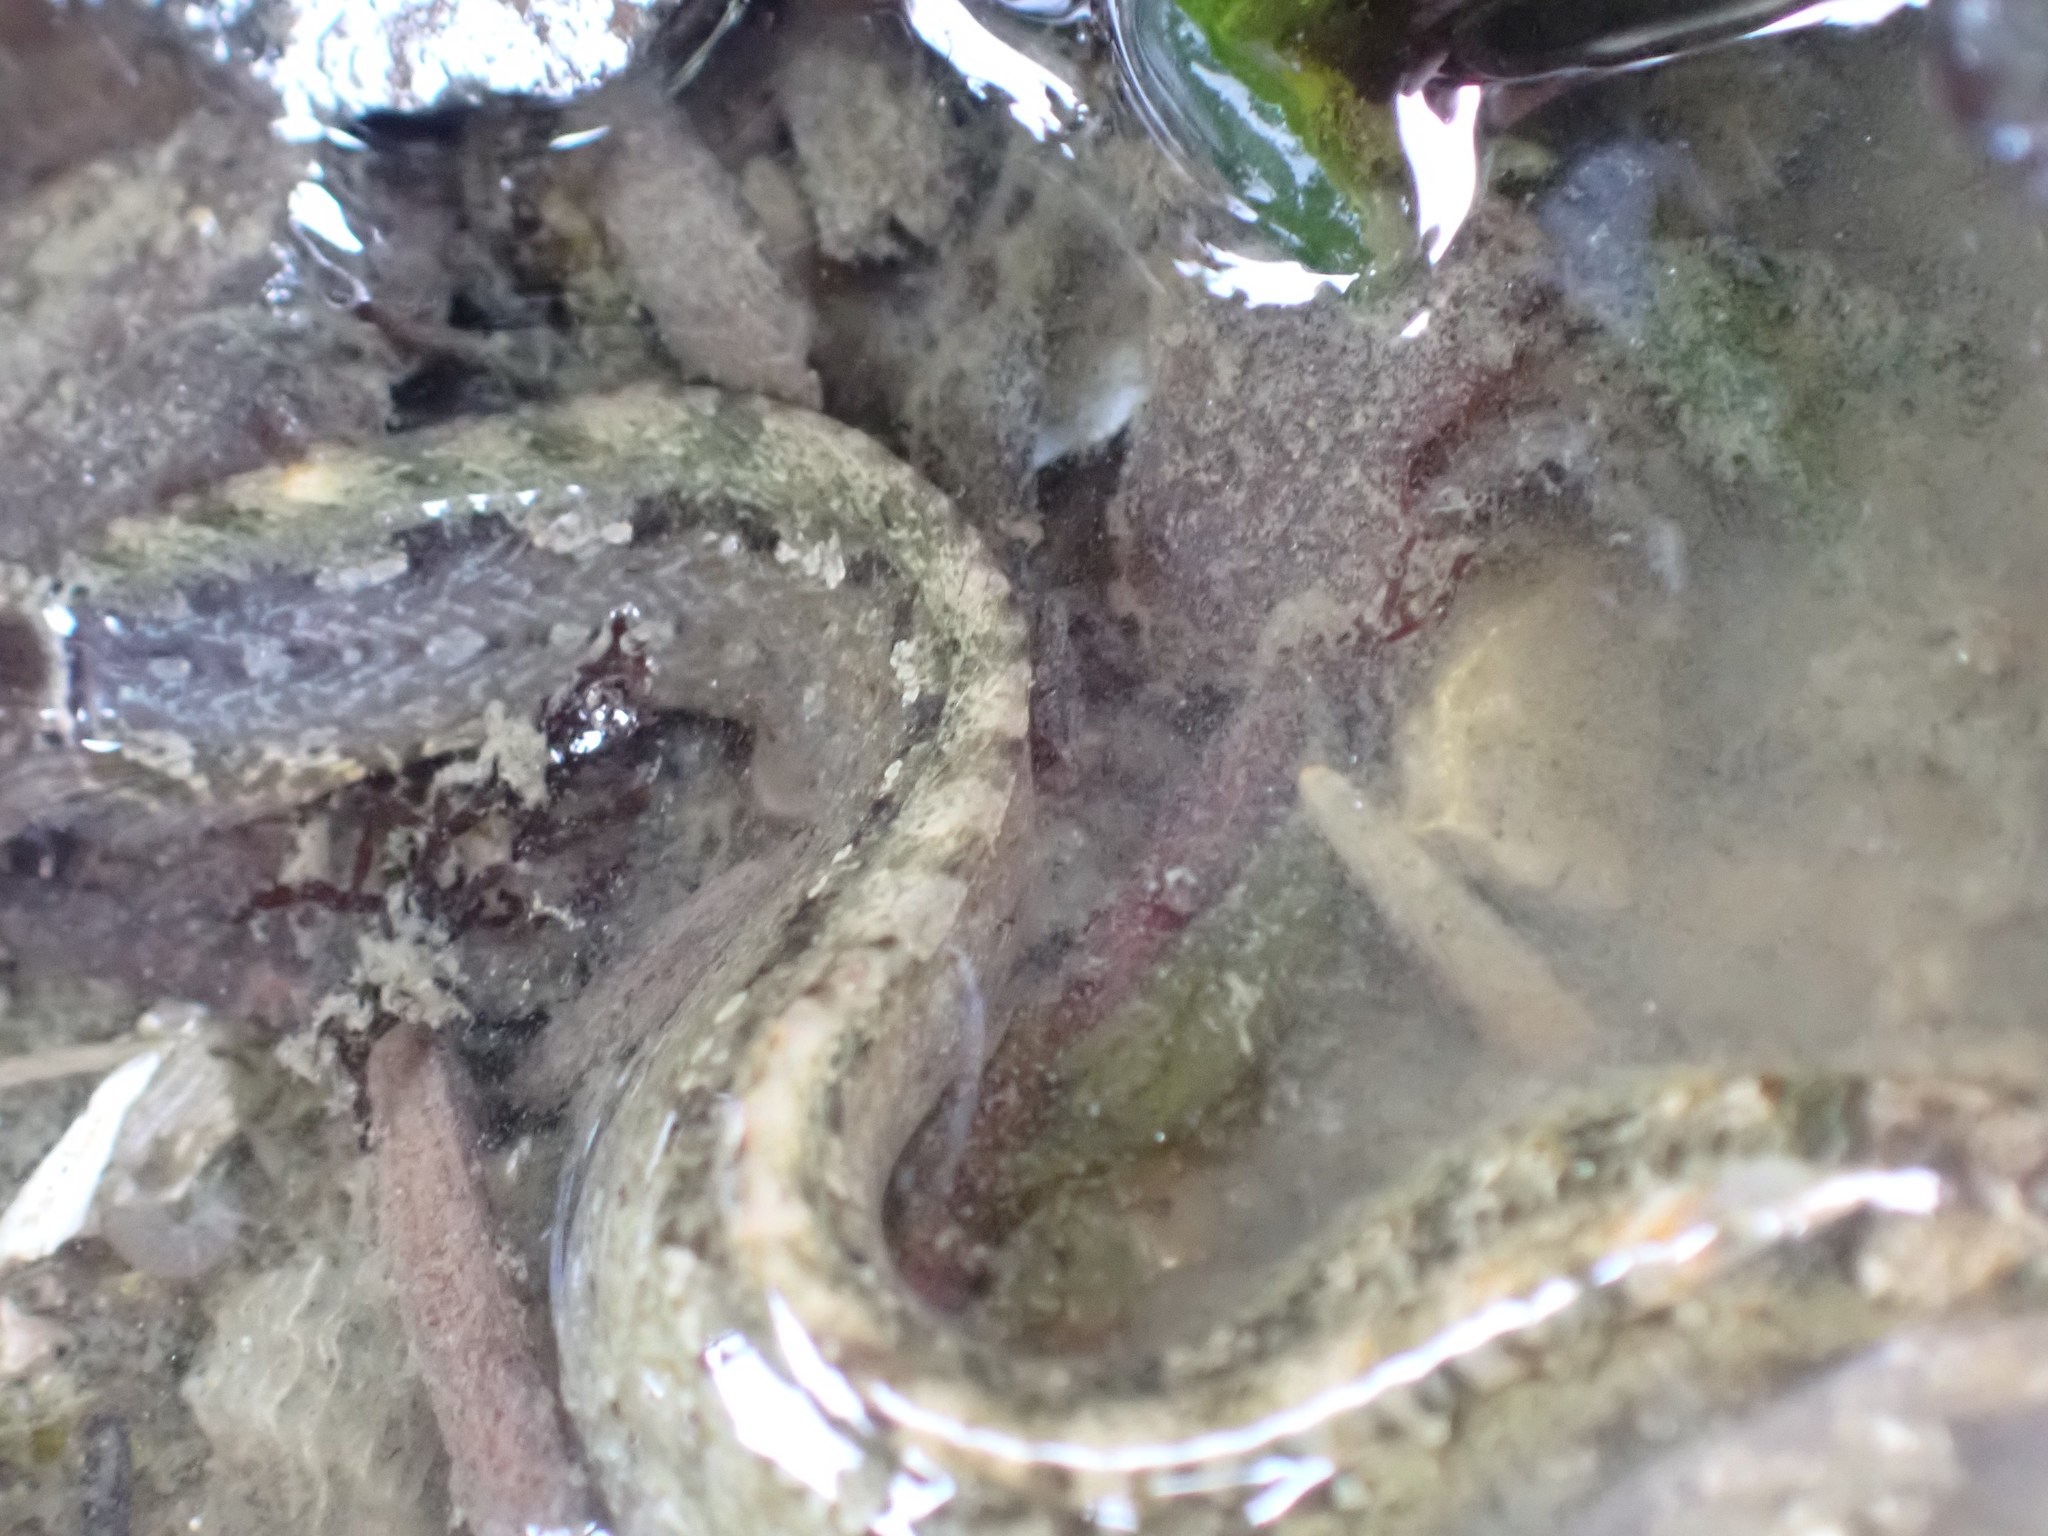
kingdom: Animalia
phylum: Chordata
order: Perciformes
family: Stichaeidae
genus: Anoplarchus
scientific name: Anoplarchus purpurescens
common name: High cockscomb
